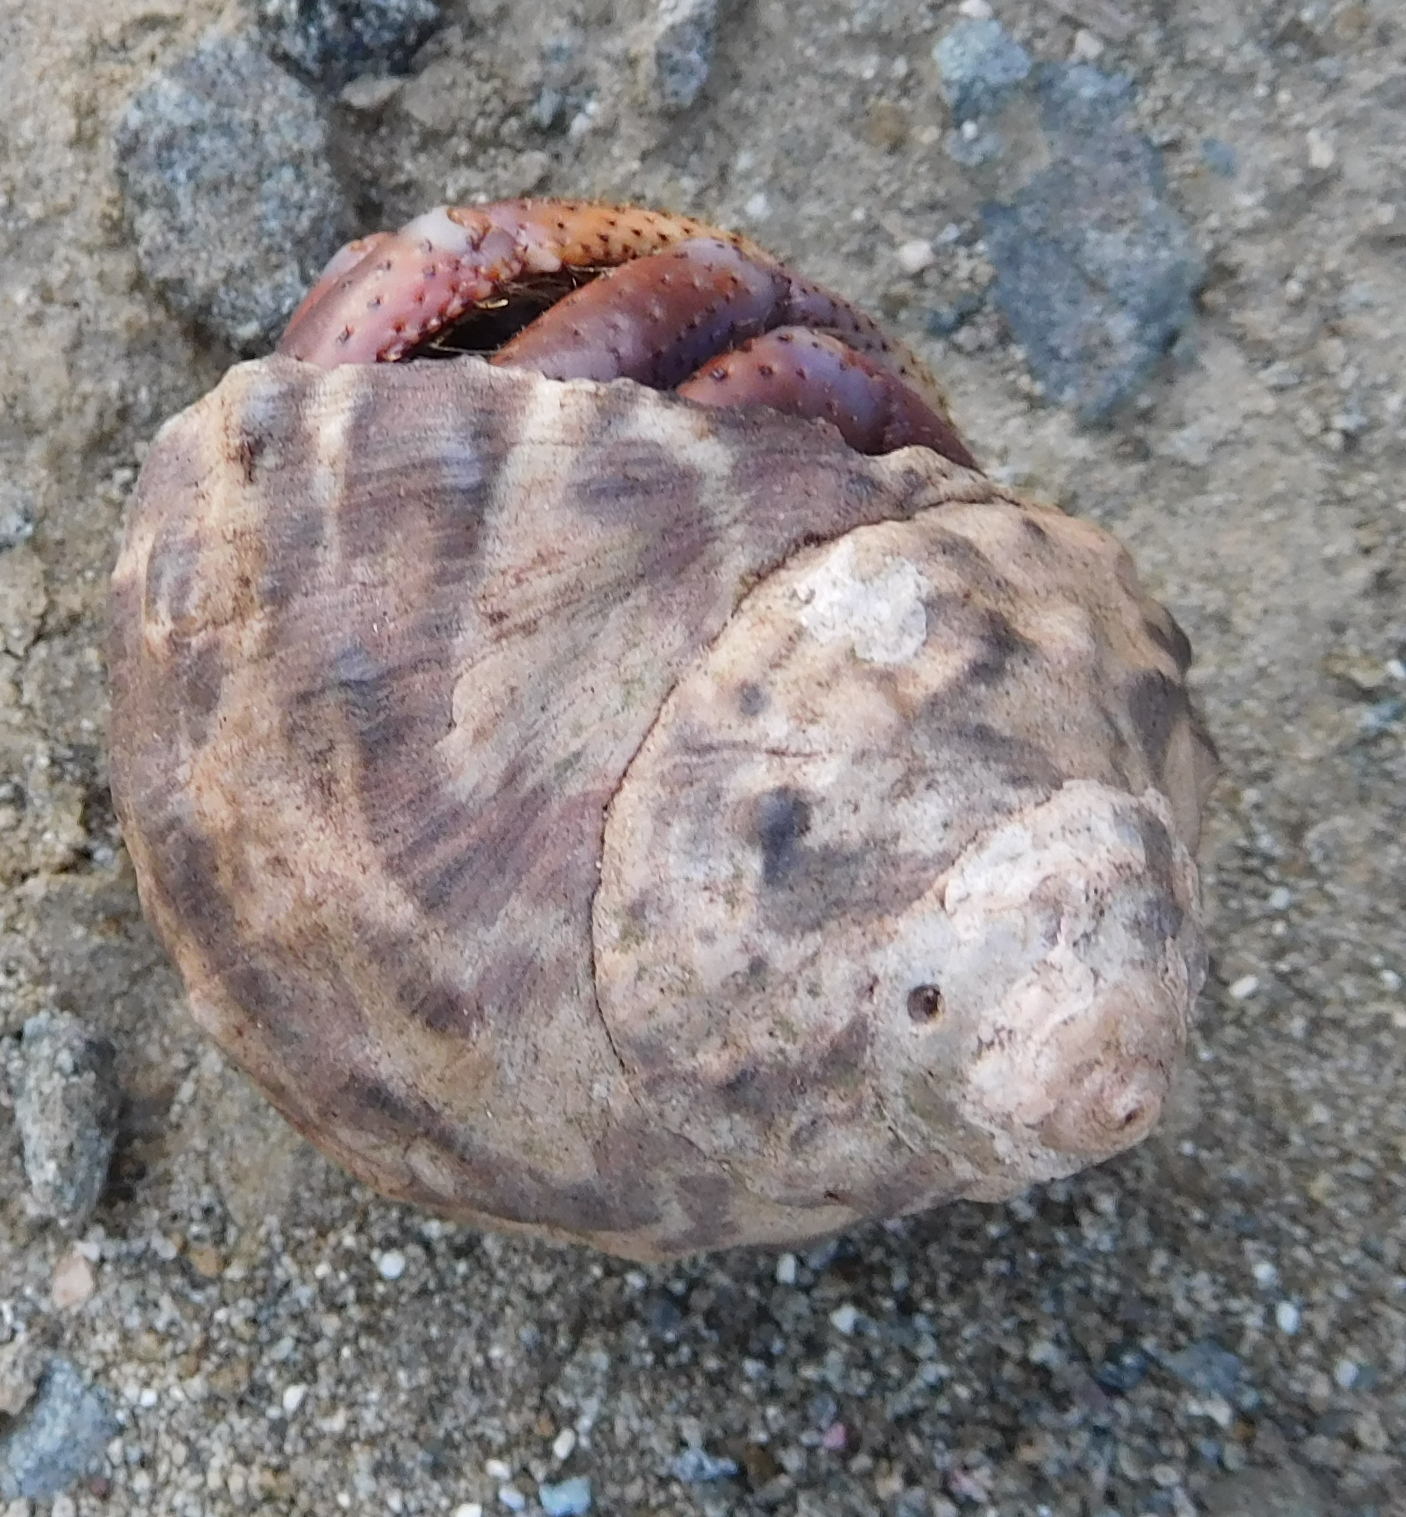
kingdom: Animalia
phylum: Arthropoda
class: Malacostraca
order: Decapoda
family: Coenobitidae
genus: Coenobita
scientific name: Coenobita clypeatus
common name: Caribbean hermit crab
